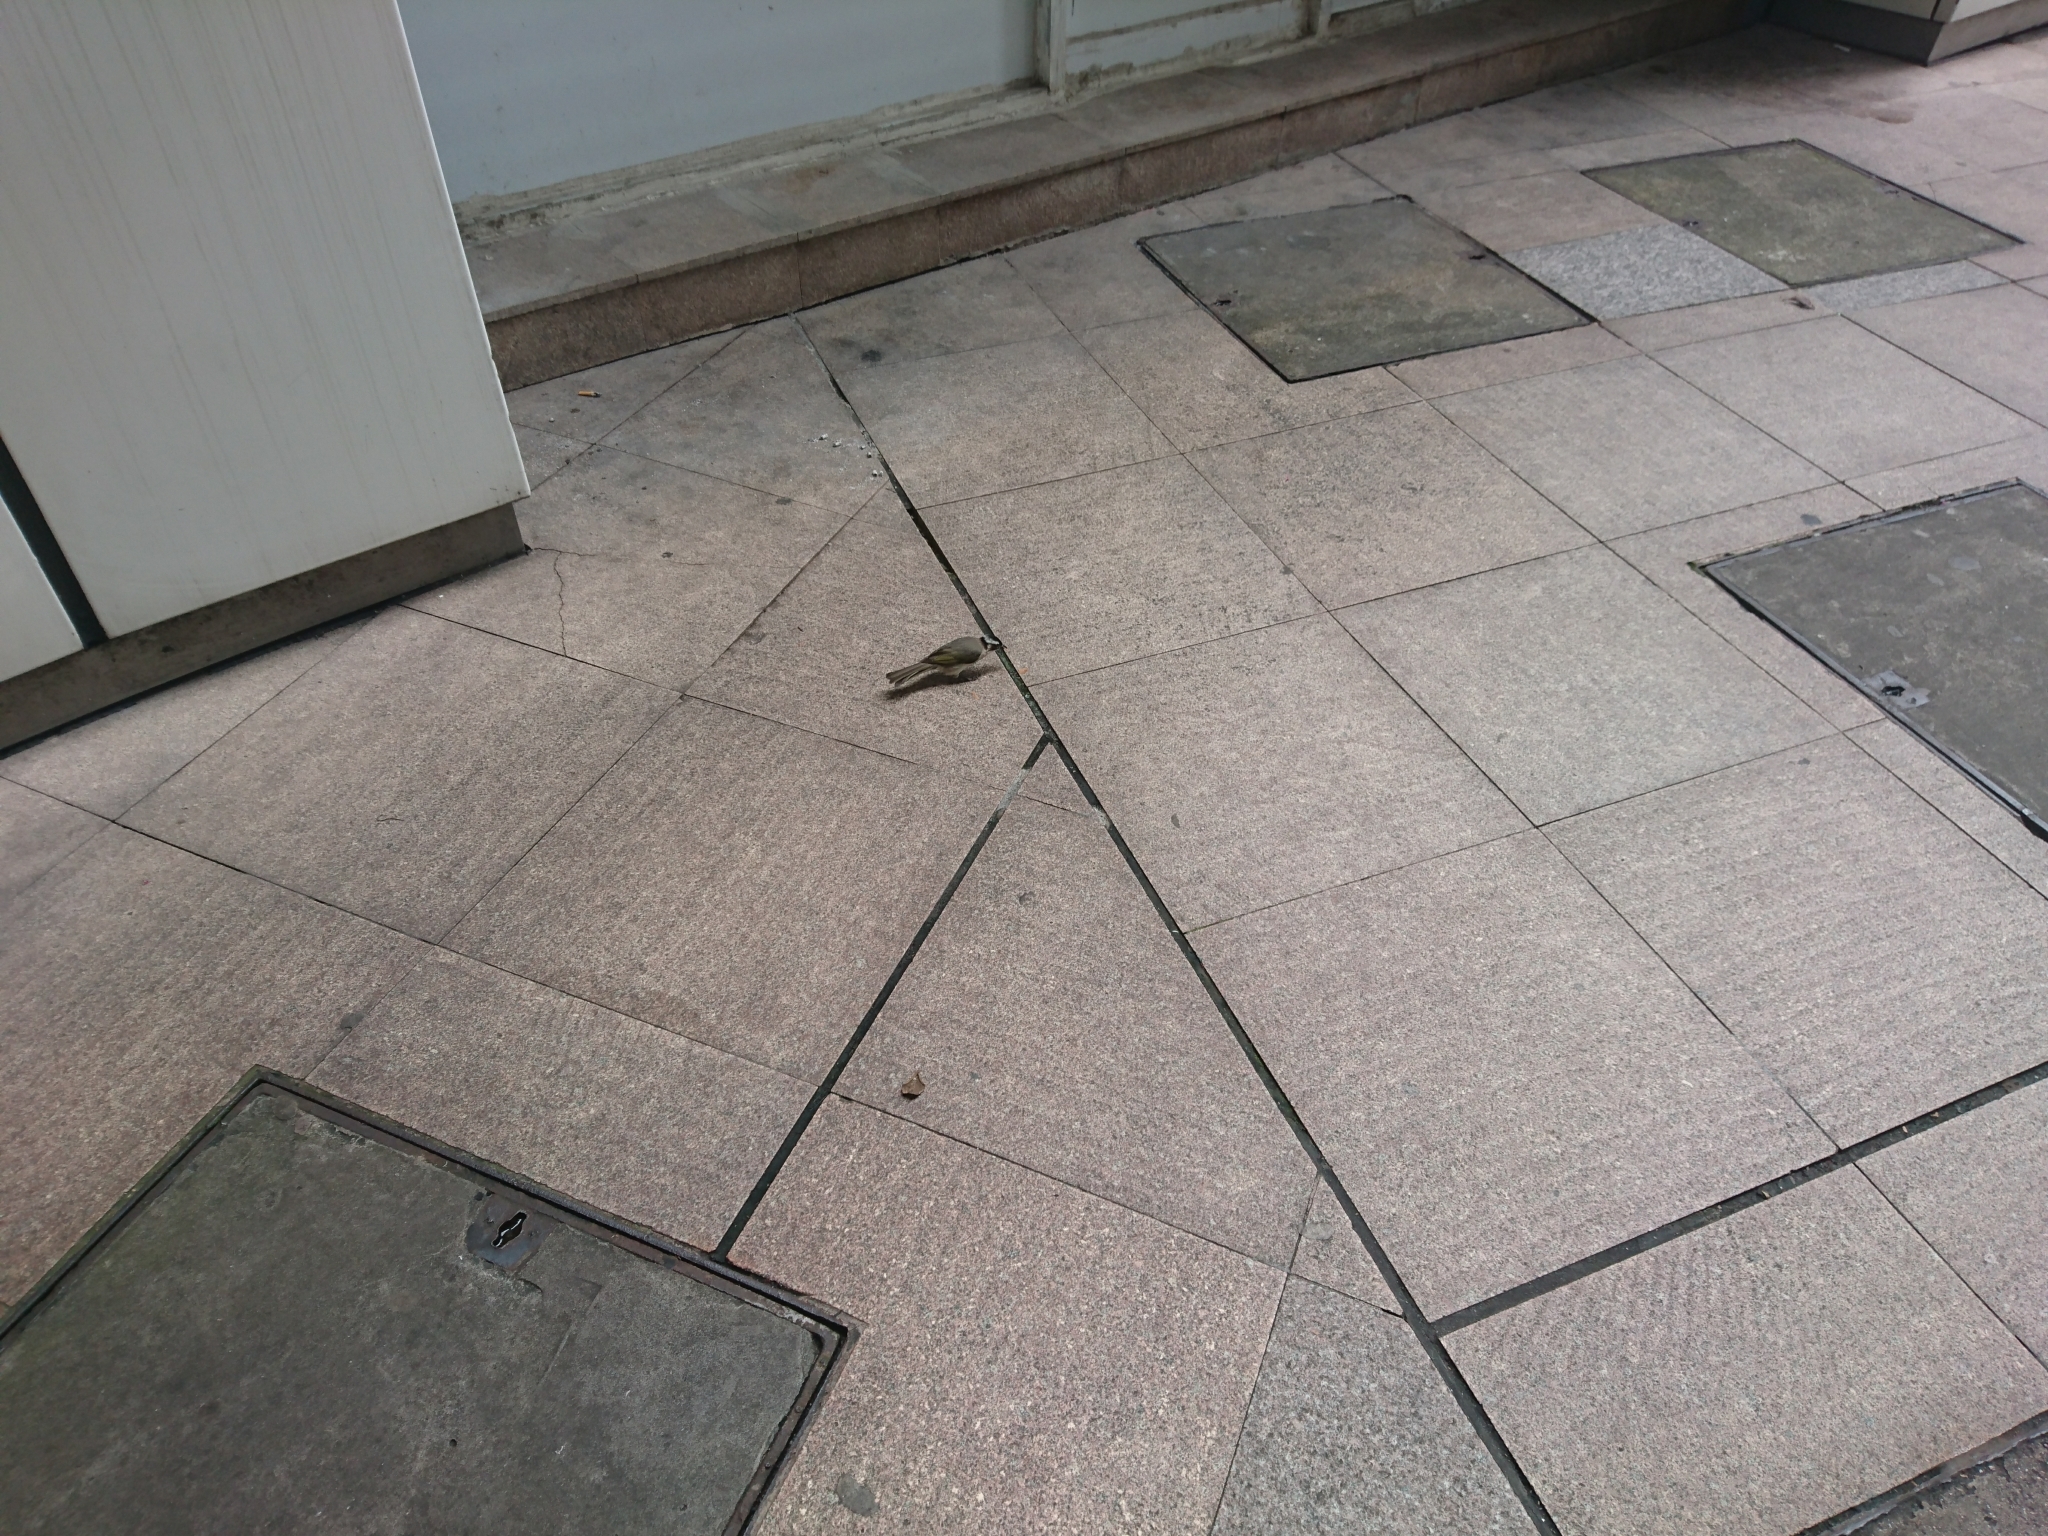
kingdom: Animalia
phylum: Chordata
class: Aves
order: Passeriformes
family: Pycnonotidae
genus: Pycnonotus
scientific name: Pycnonotus sinensis
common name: Light-vented bulbul
